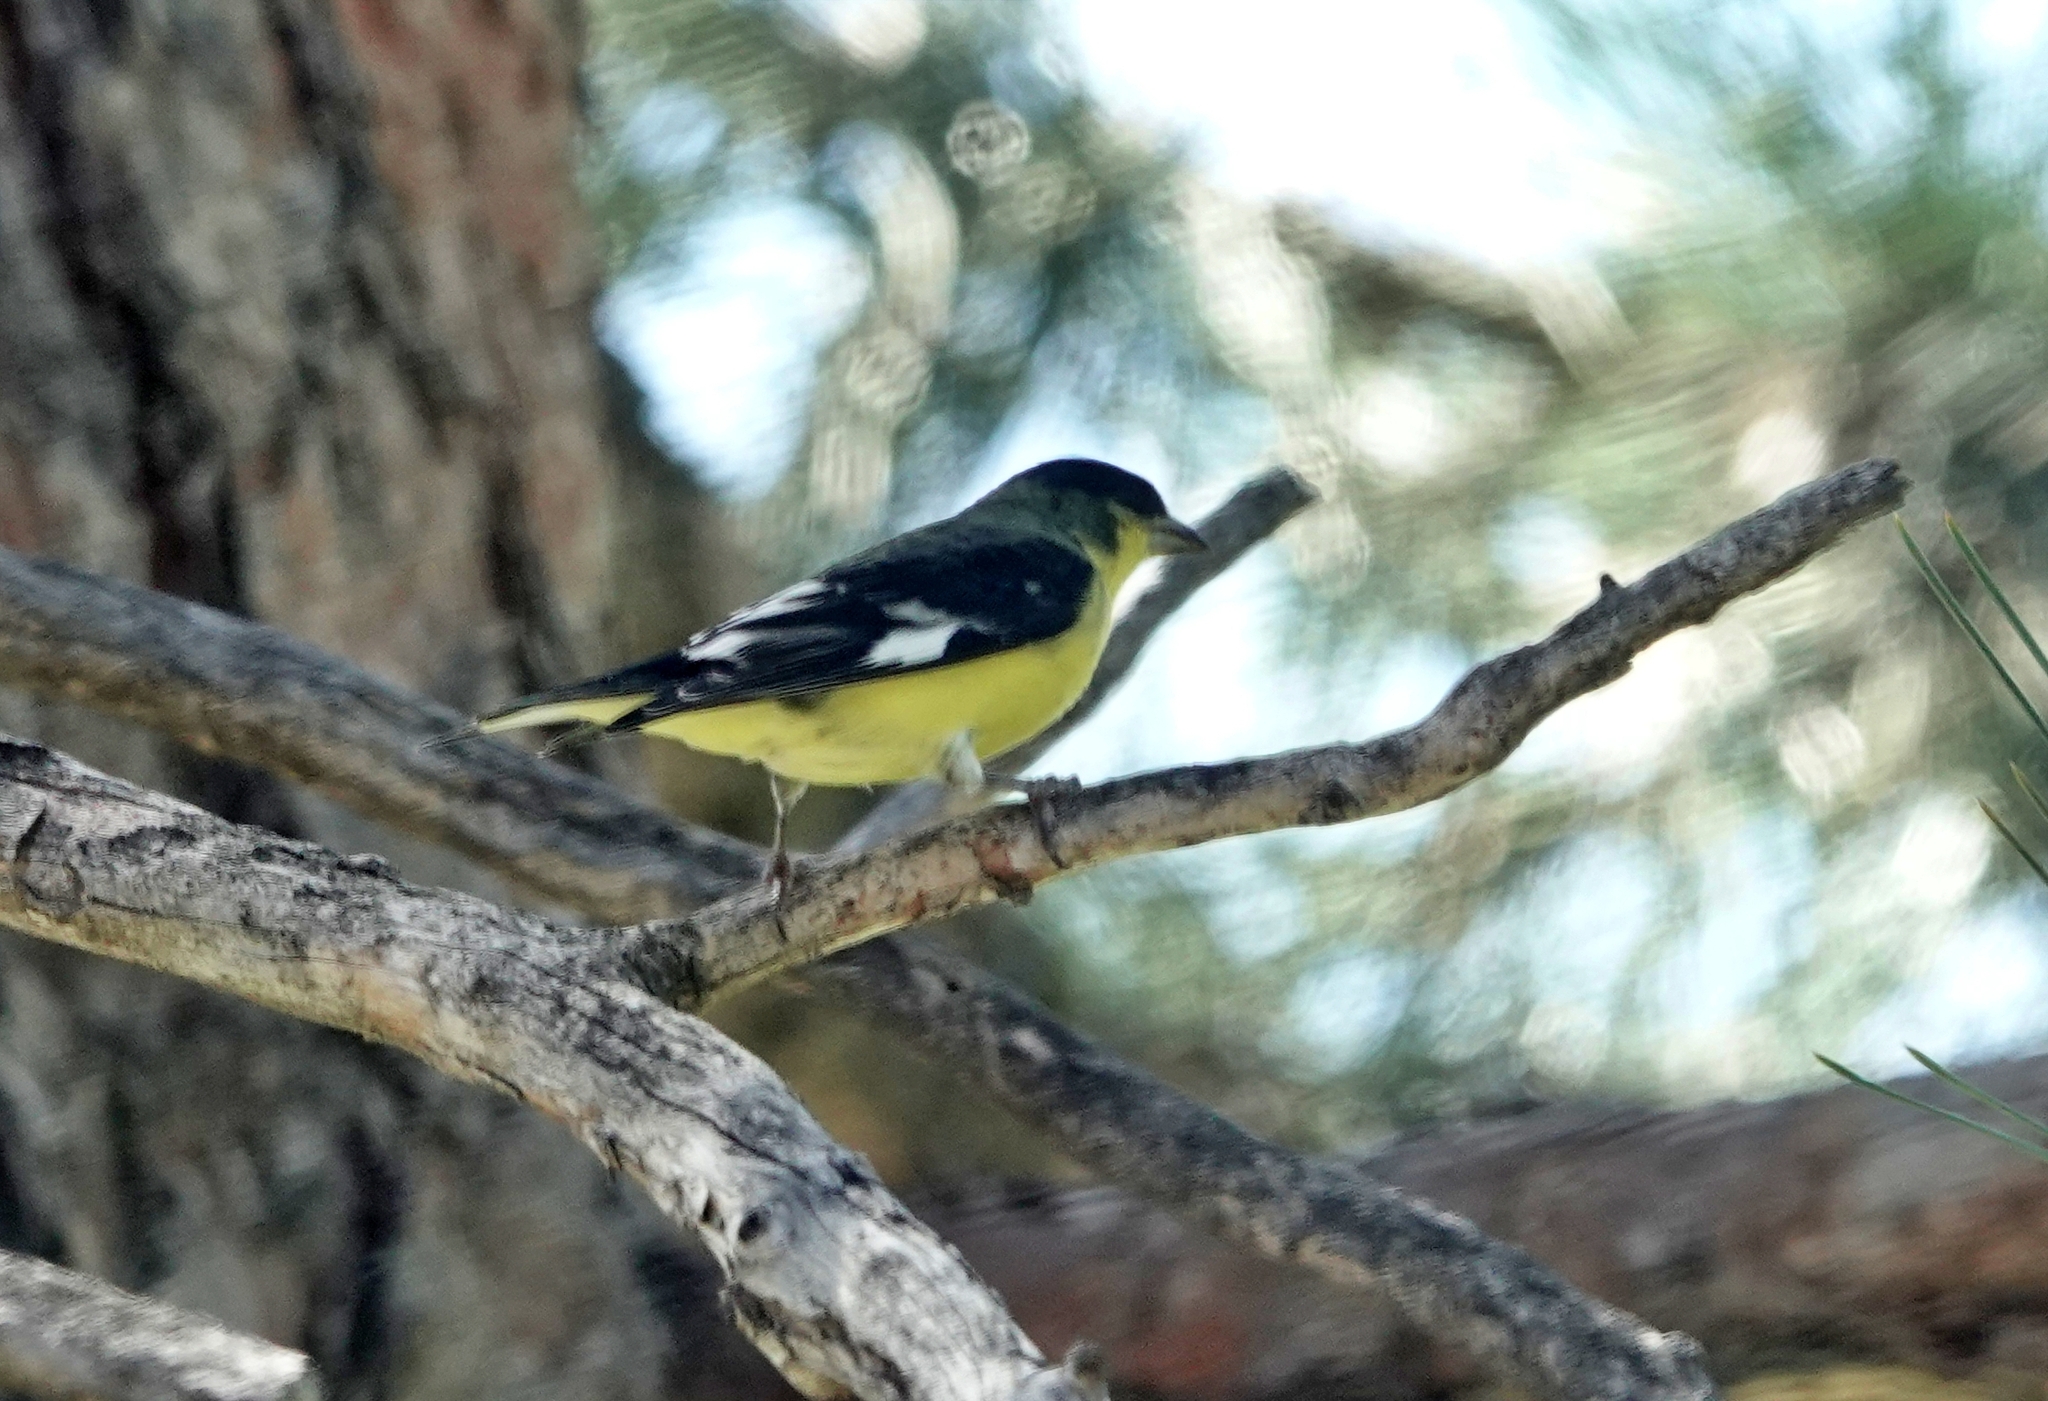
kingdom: Animalia
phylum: Chordata
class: Aves
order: Passeriformes
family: Fringillidae
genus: Spinus
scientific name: Spinus psaltria
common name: Lesser goldfinch
